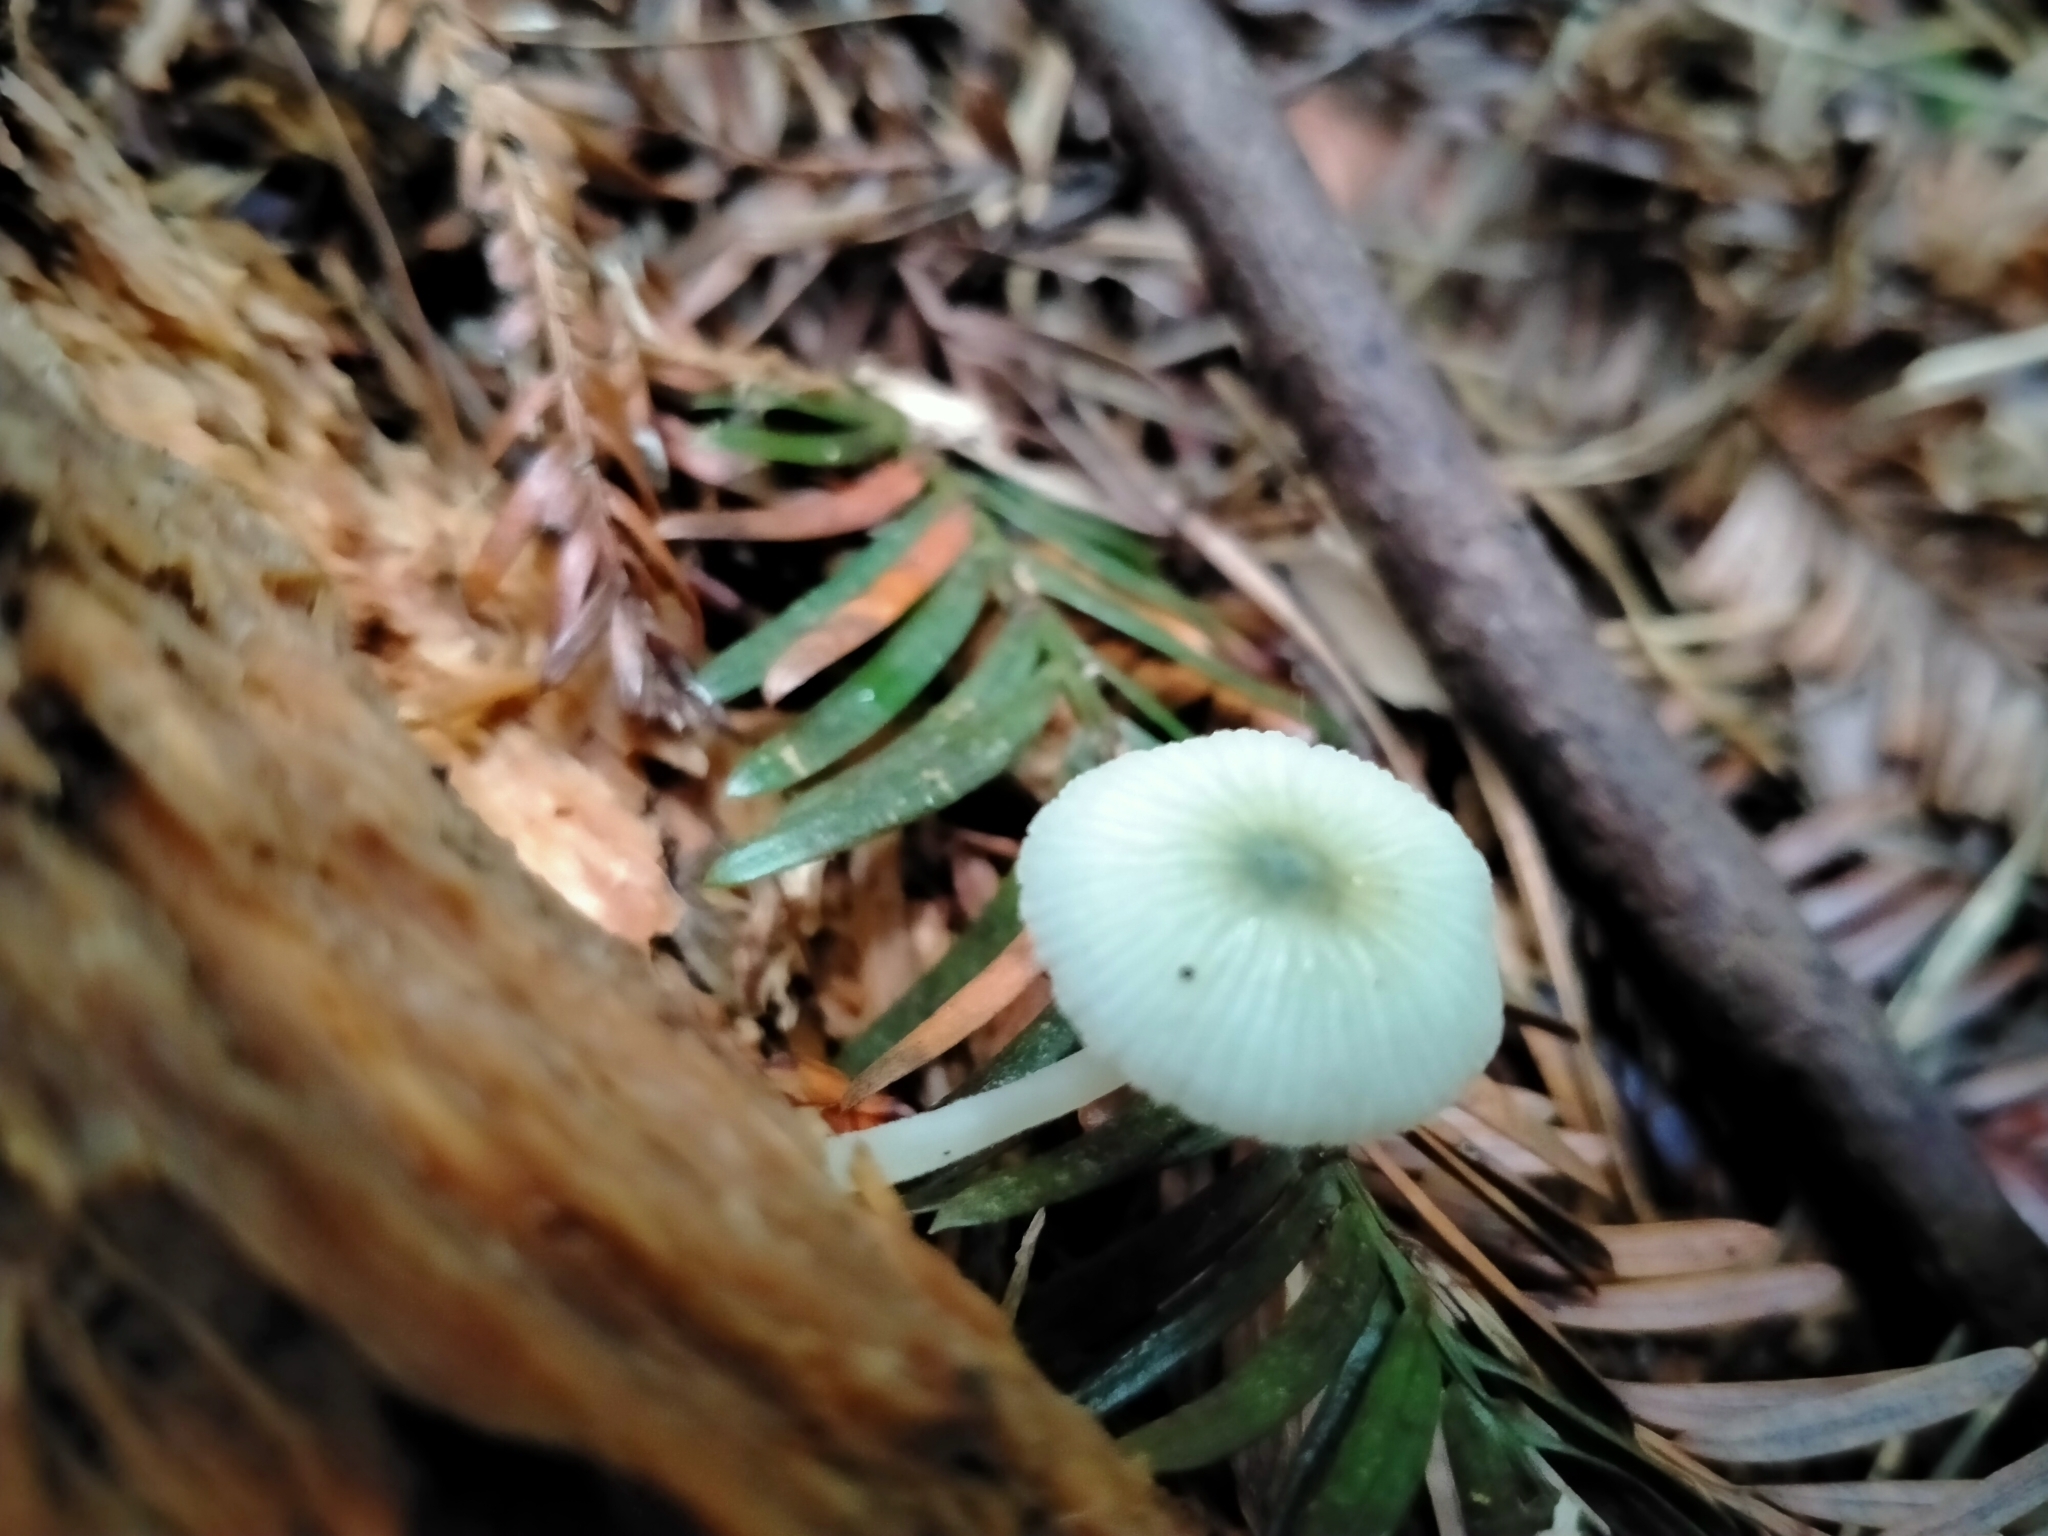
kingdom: Fungi
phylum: Basidiomycota
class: Agaricomycetes
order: Agaricales
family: Mycenaceae
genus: Mycena
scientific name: Mycena interrupta
